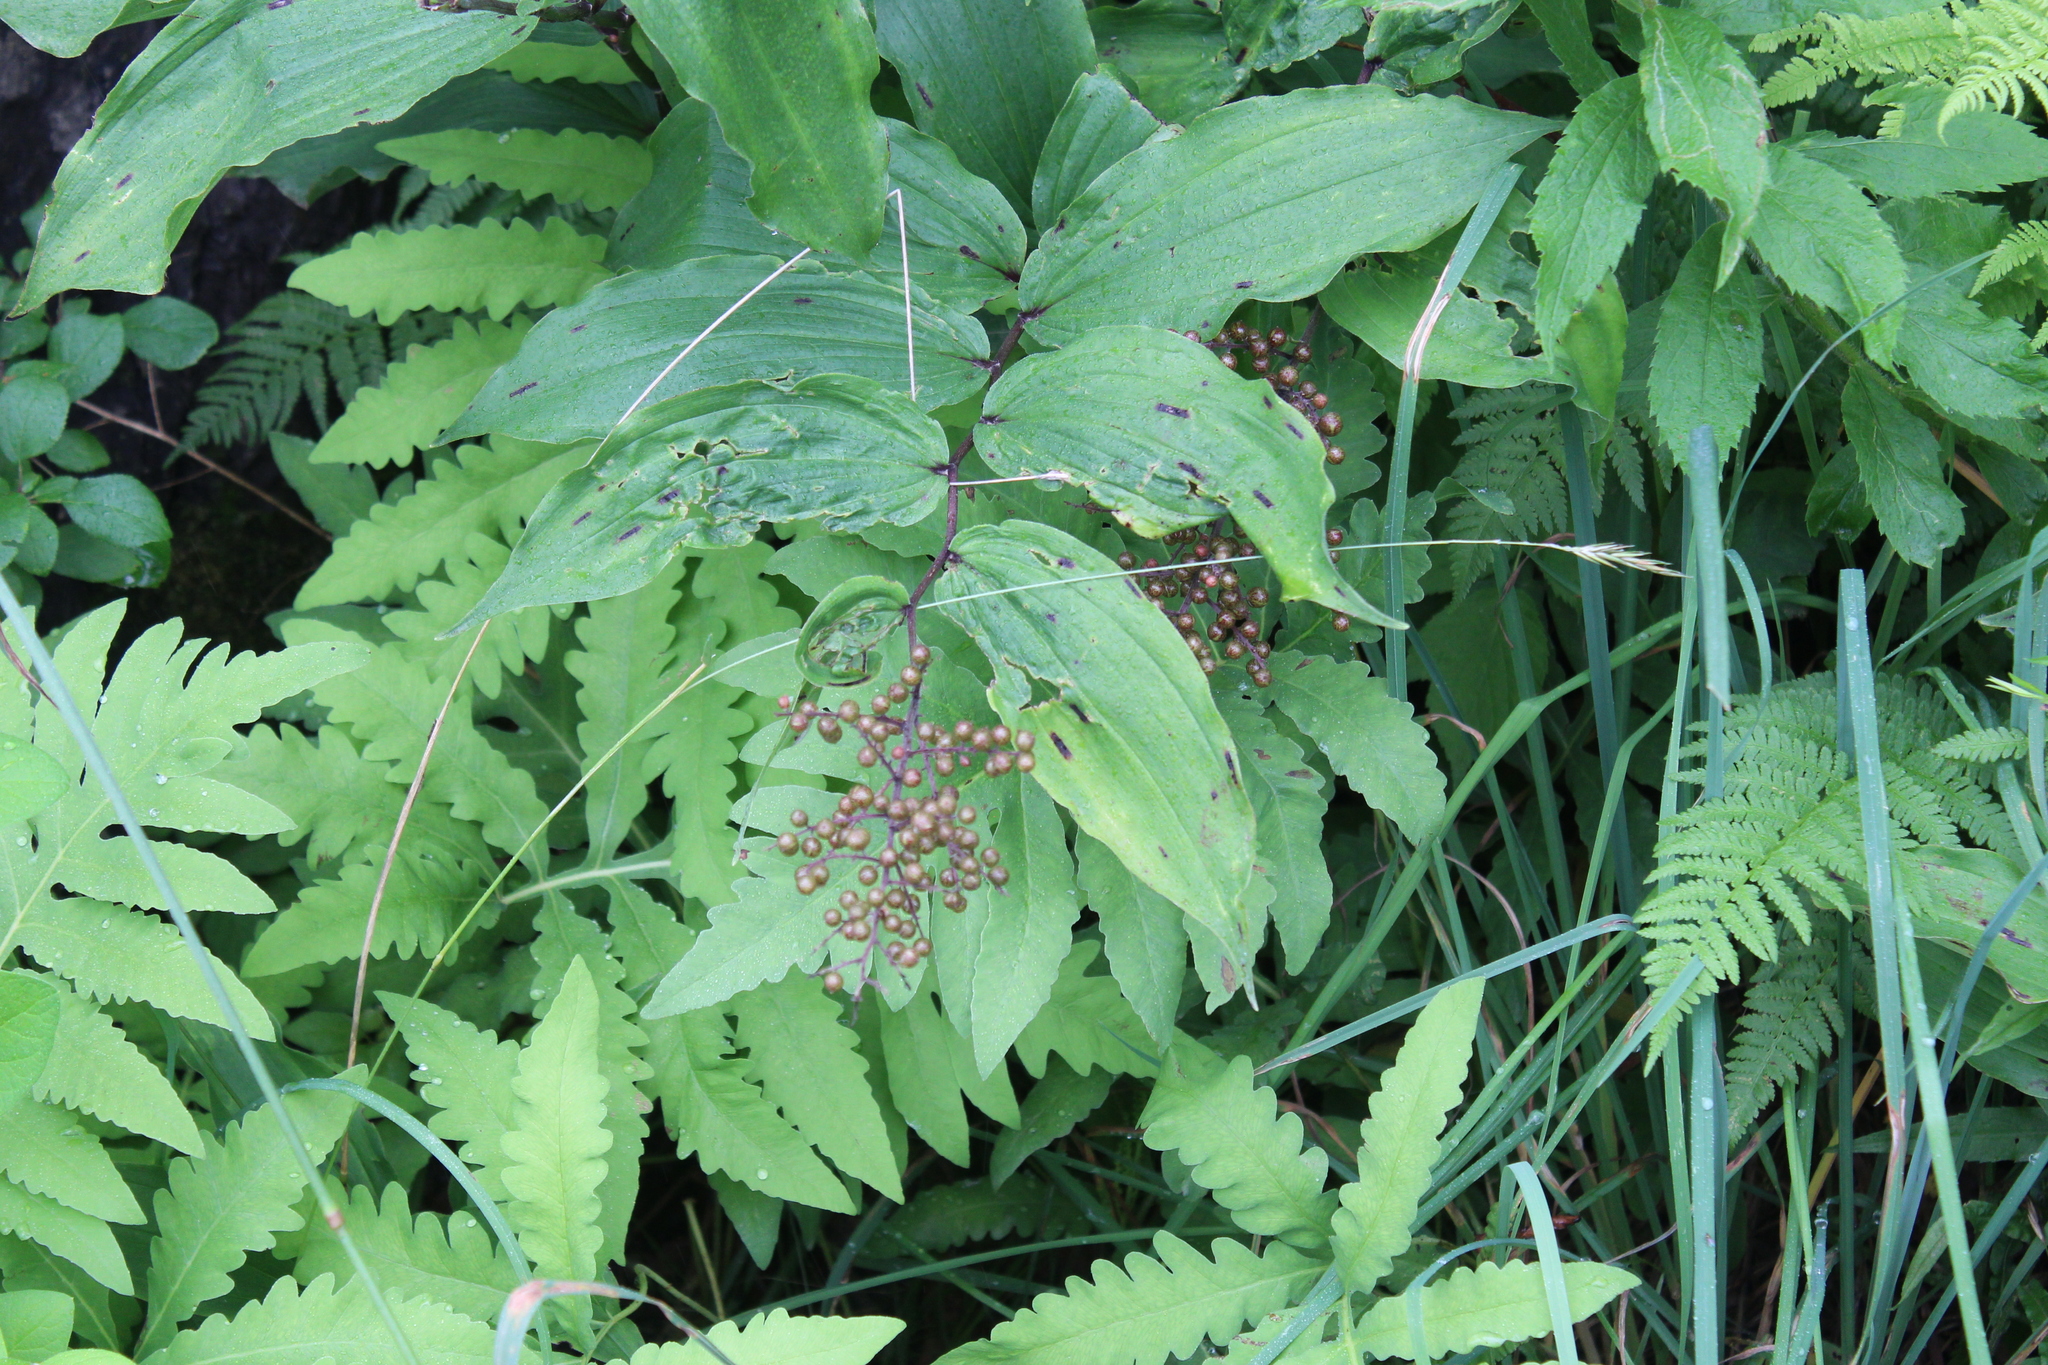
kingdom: Plantae
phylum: Tracheophyta
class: Liliopsida
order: Asparagales
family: Asparagaceae
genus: Maianthemum
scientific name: Maianthemum racemosum
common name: False spikenard
